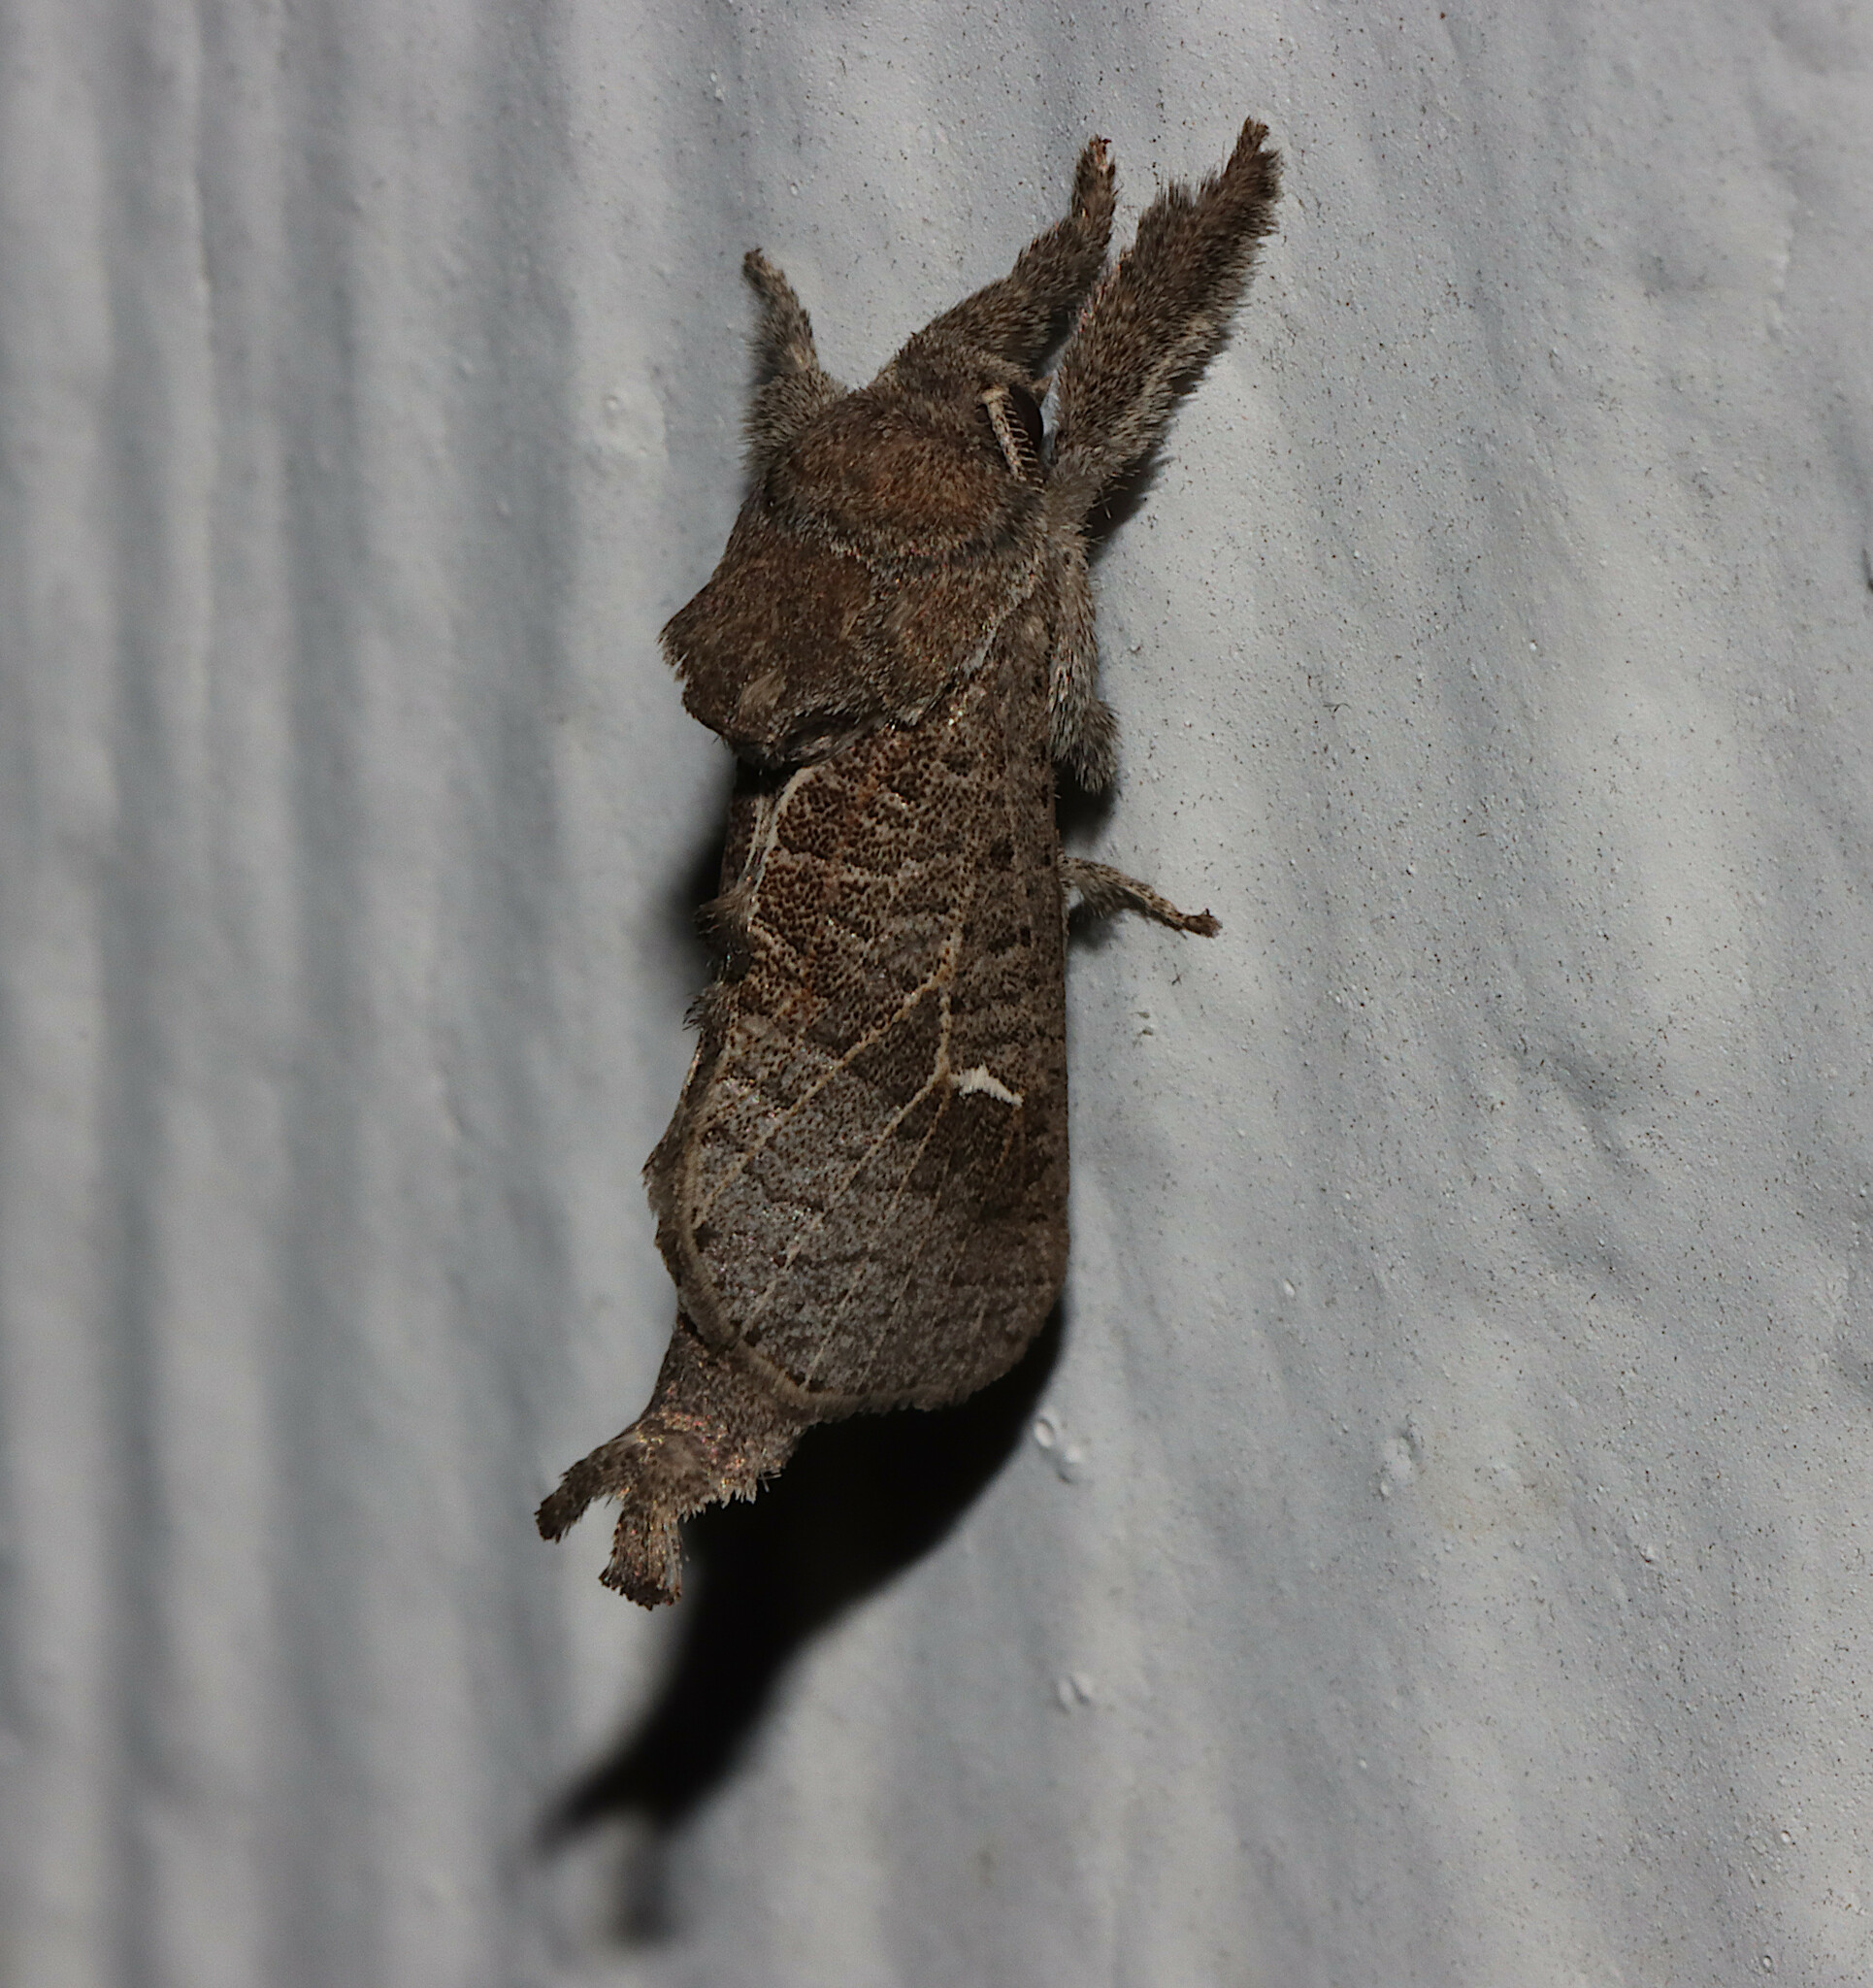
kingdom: Animalia
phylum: Arthropoda
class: Insecta
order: Lepidoptera
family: Cossidae
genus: Givira
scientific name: Givira anna
